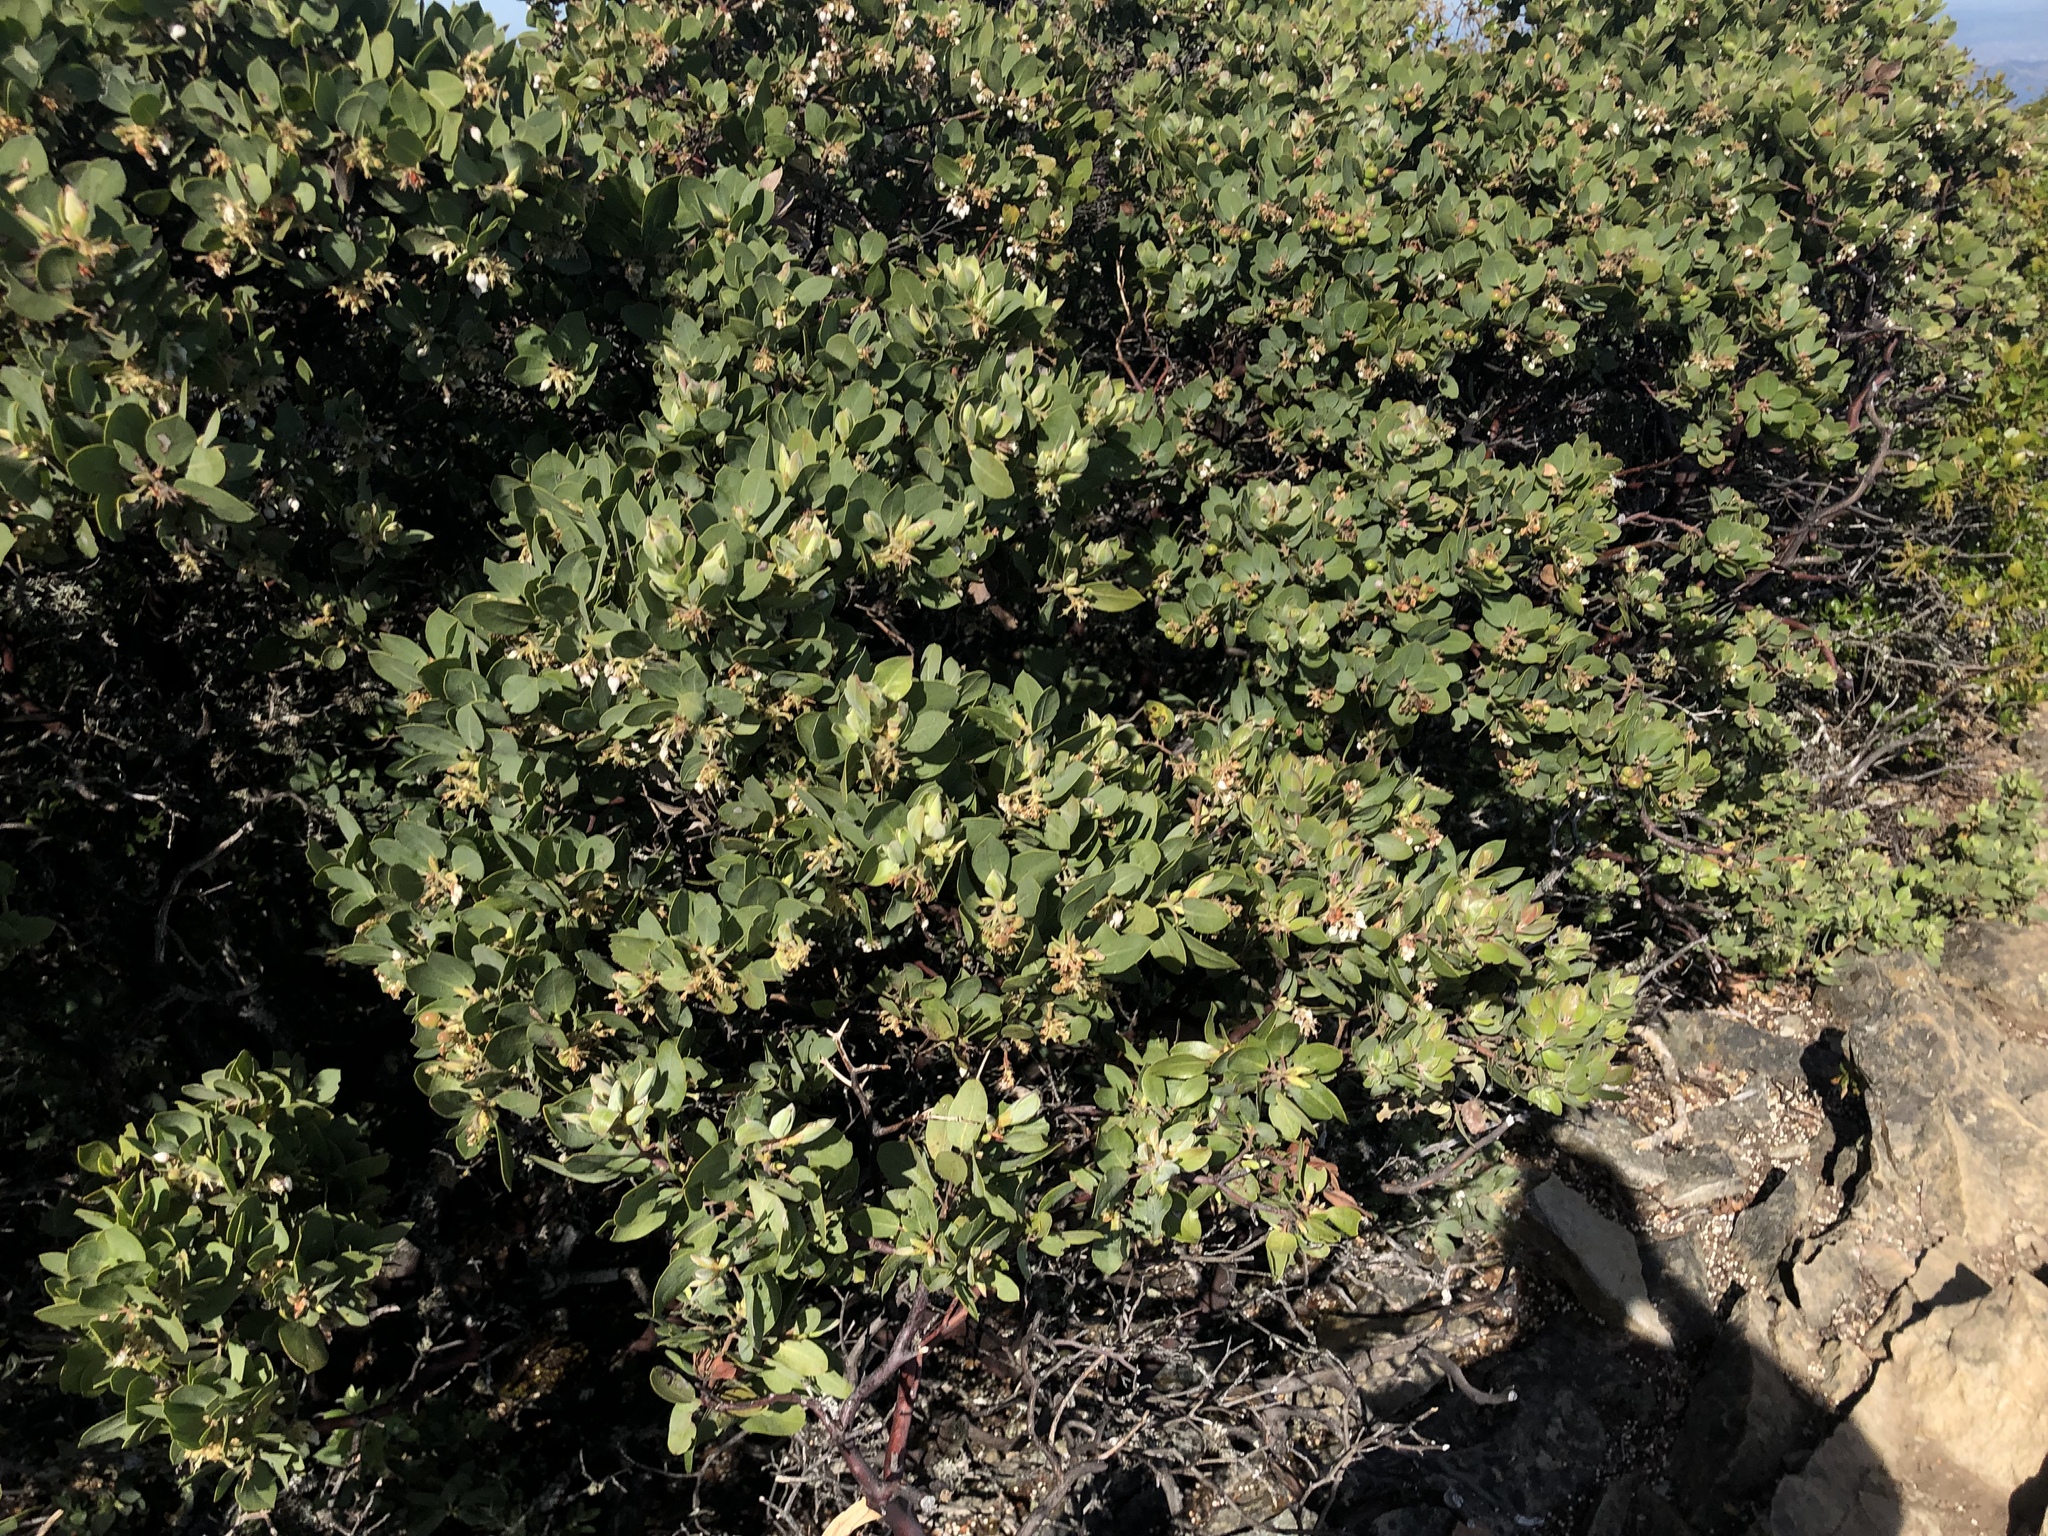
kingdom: Plantae
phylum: Tracheophyta
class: Magnoliopsida
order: Ericales
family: Ericaceae
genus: Arctostaphylos
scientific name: Arctostaphylos glandulosa
